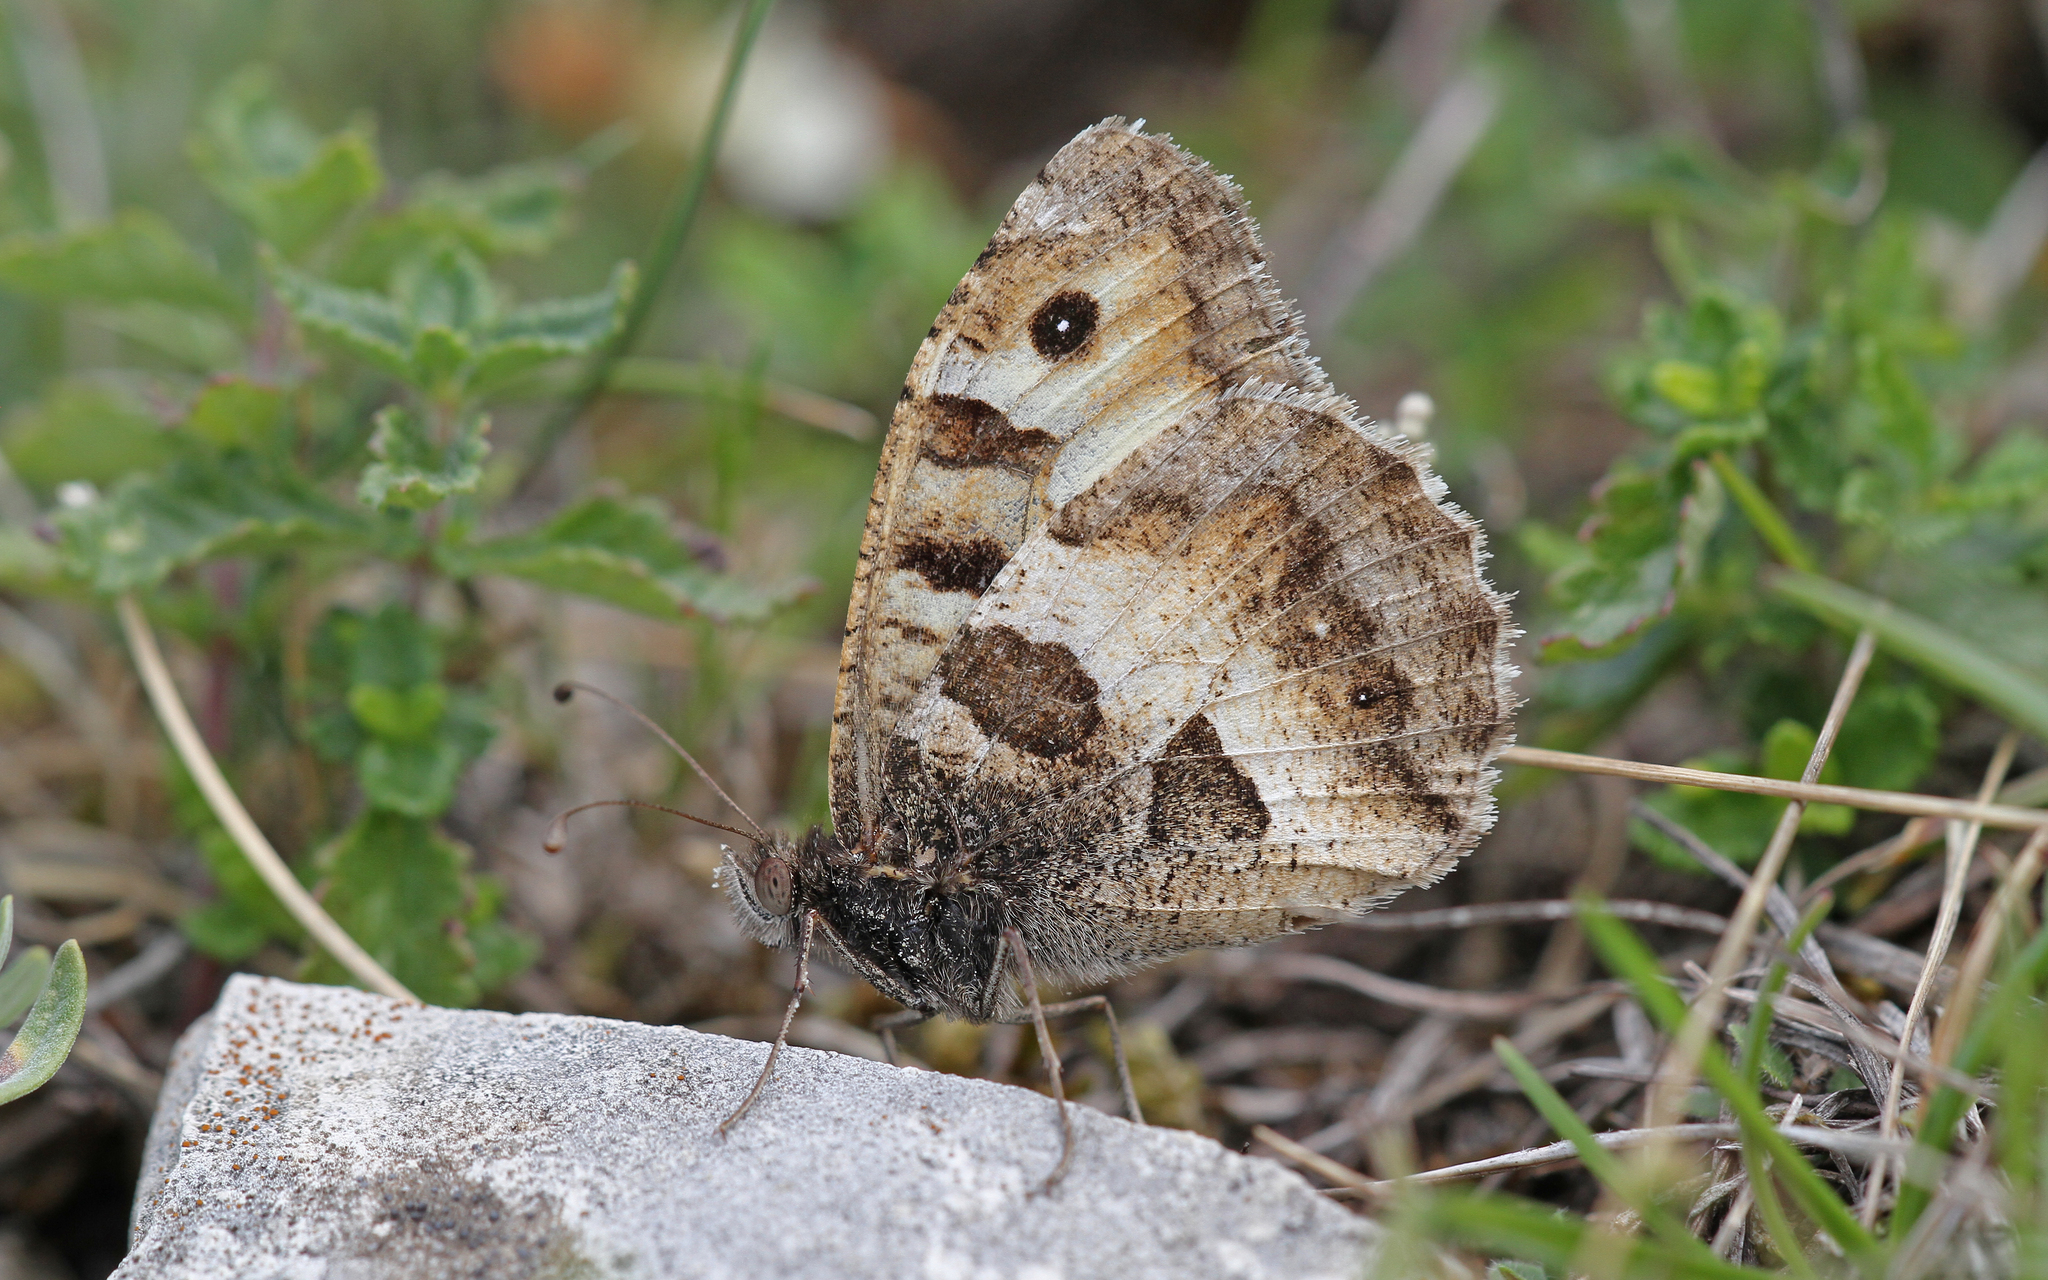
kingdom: Animalia
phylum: Arthropoda
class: Insecta
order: Lepidoptera
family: Nymphalidae
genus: Satyrus
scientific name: Satyrus briseis
